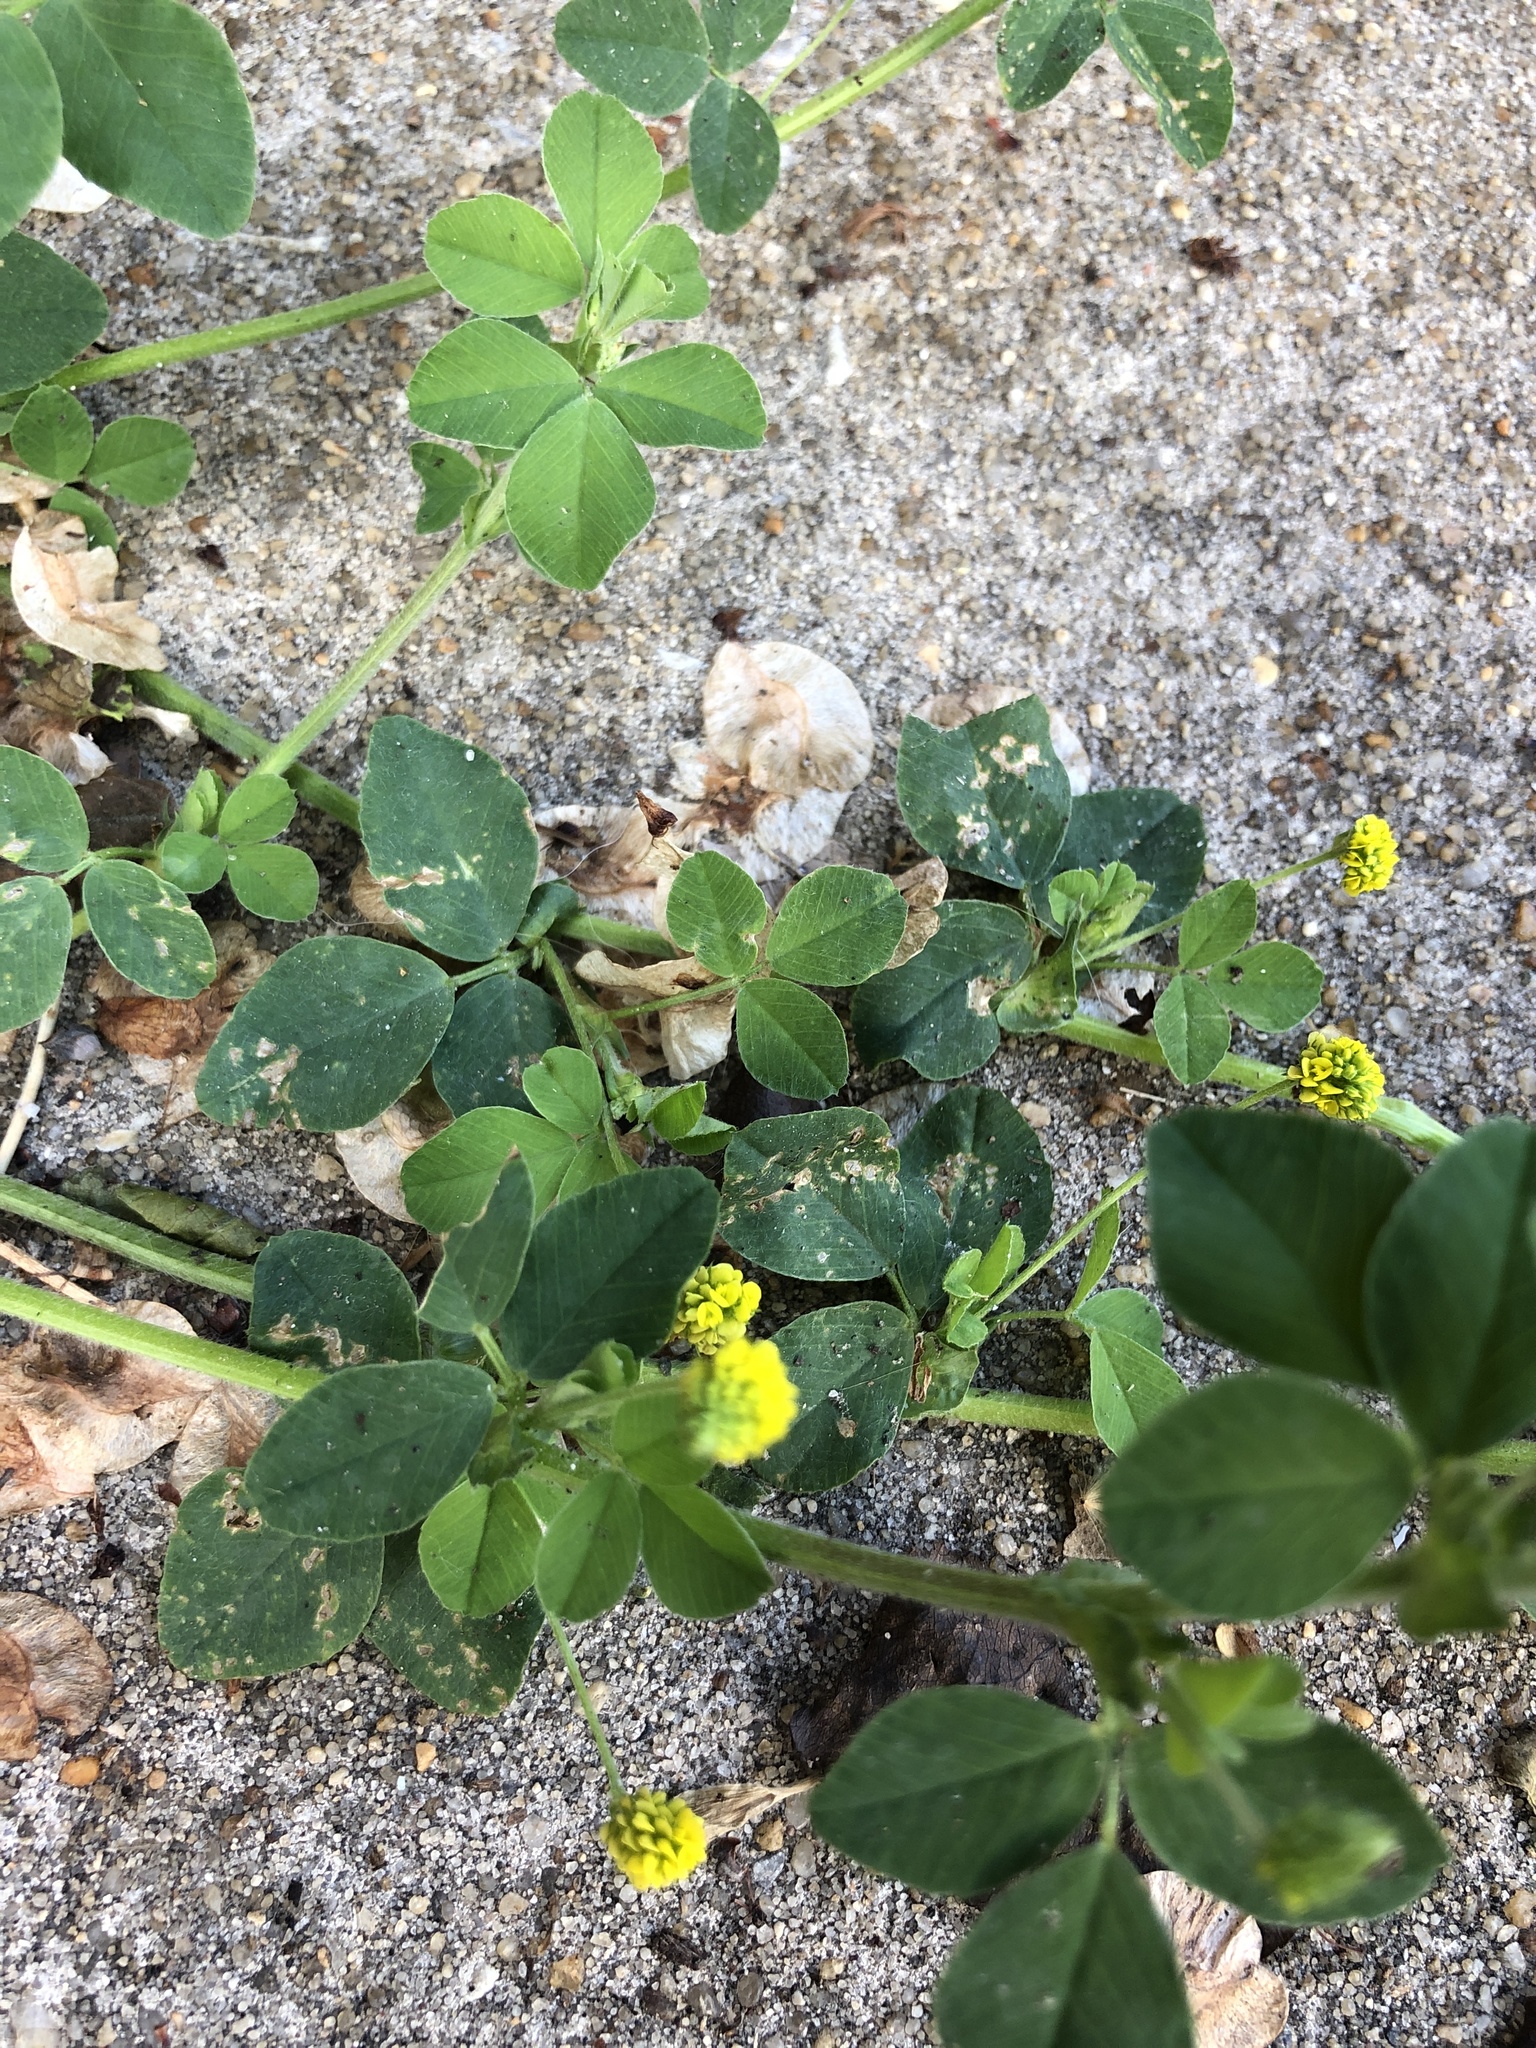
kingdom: Plantae
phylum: Tracheophyta
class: Magnoliopsida
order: Fabales
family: Fabaceae
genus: Medicago
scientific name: Medicago lupulina
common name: Black medick
